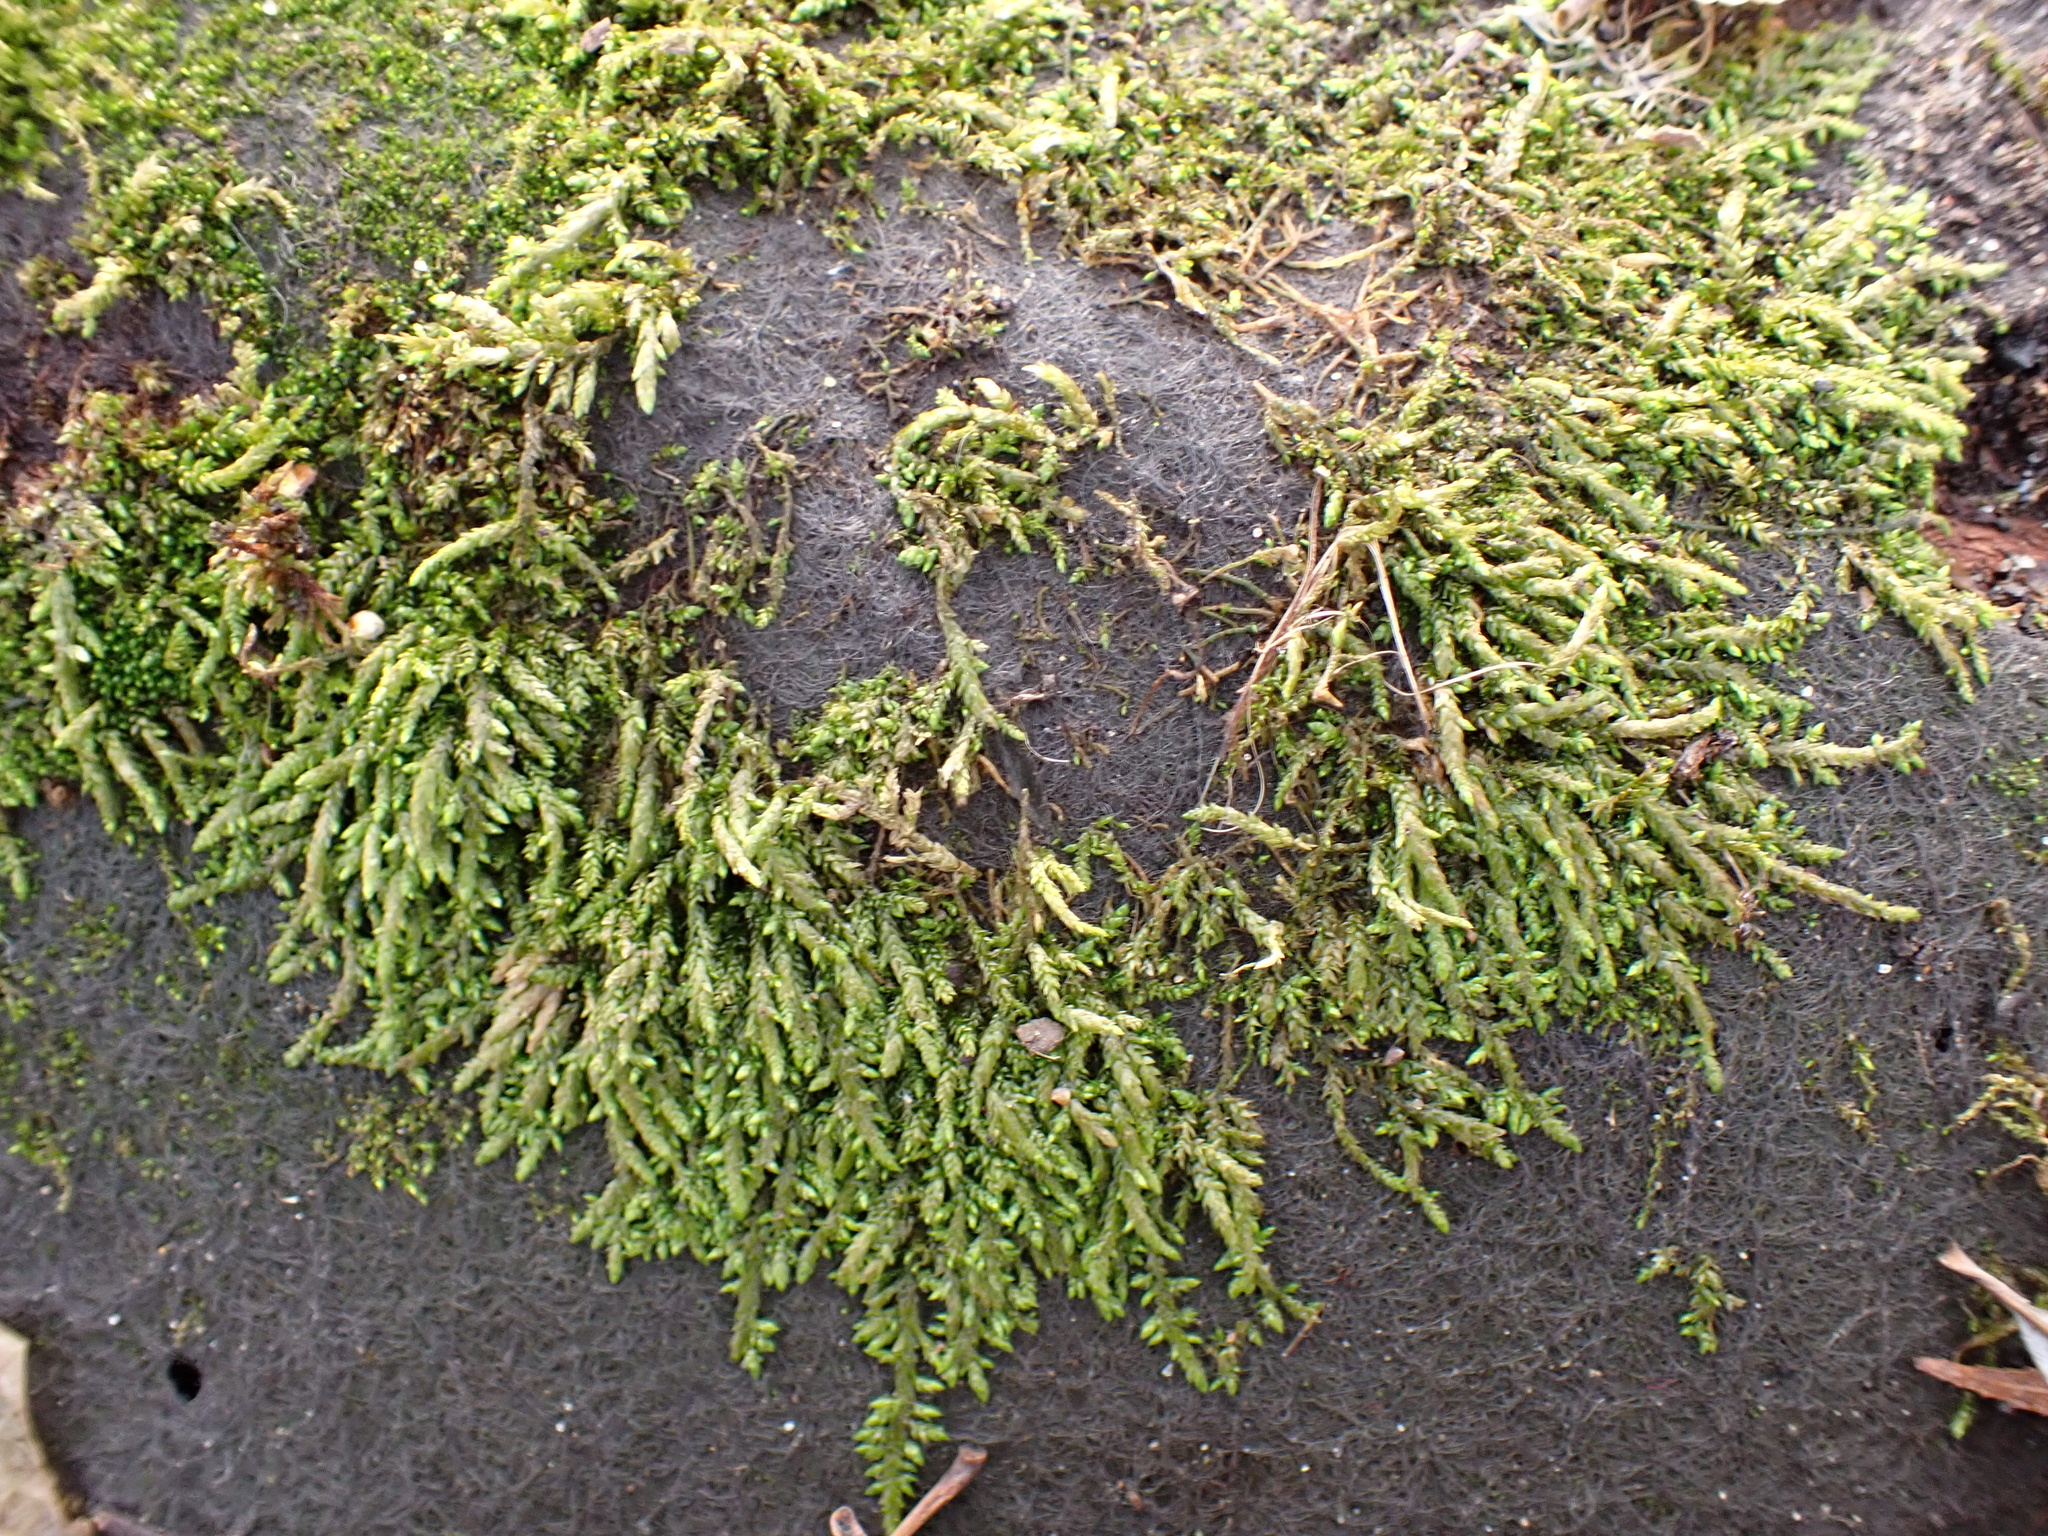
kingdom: Plantae
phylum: Bryophyta
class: Bryopsida
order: Hypnales
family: Entodontaceae
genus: Entodon
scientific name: Entodon cladorrhizans
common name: Flat-stemmed entodon moss
